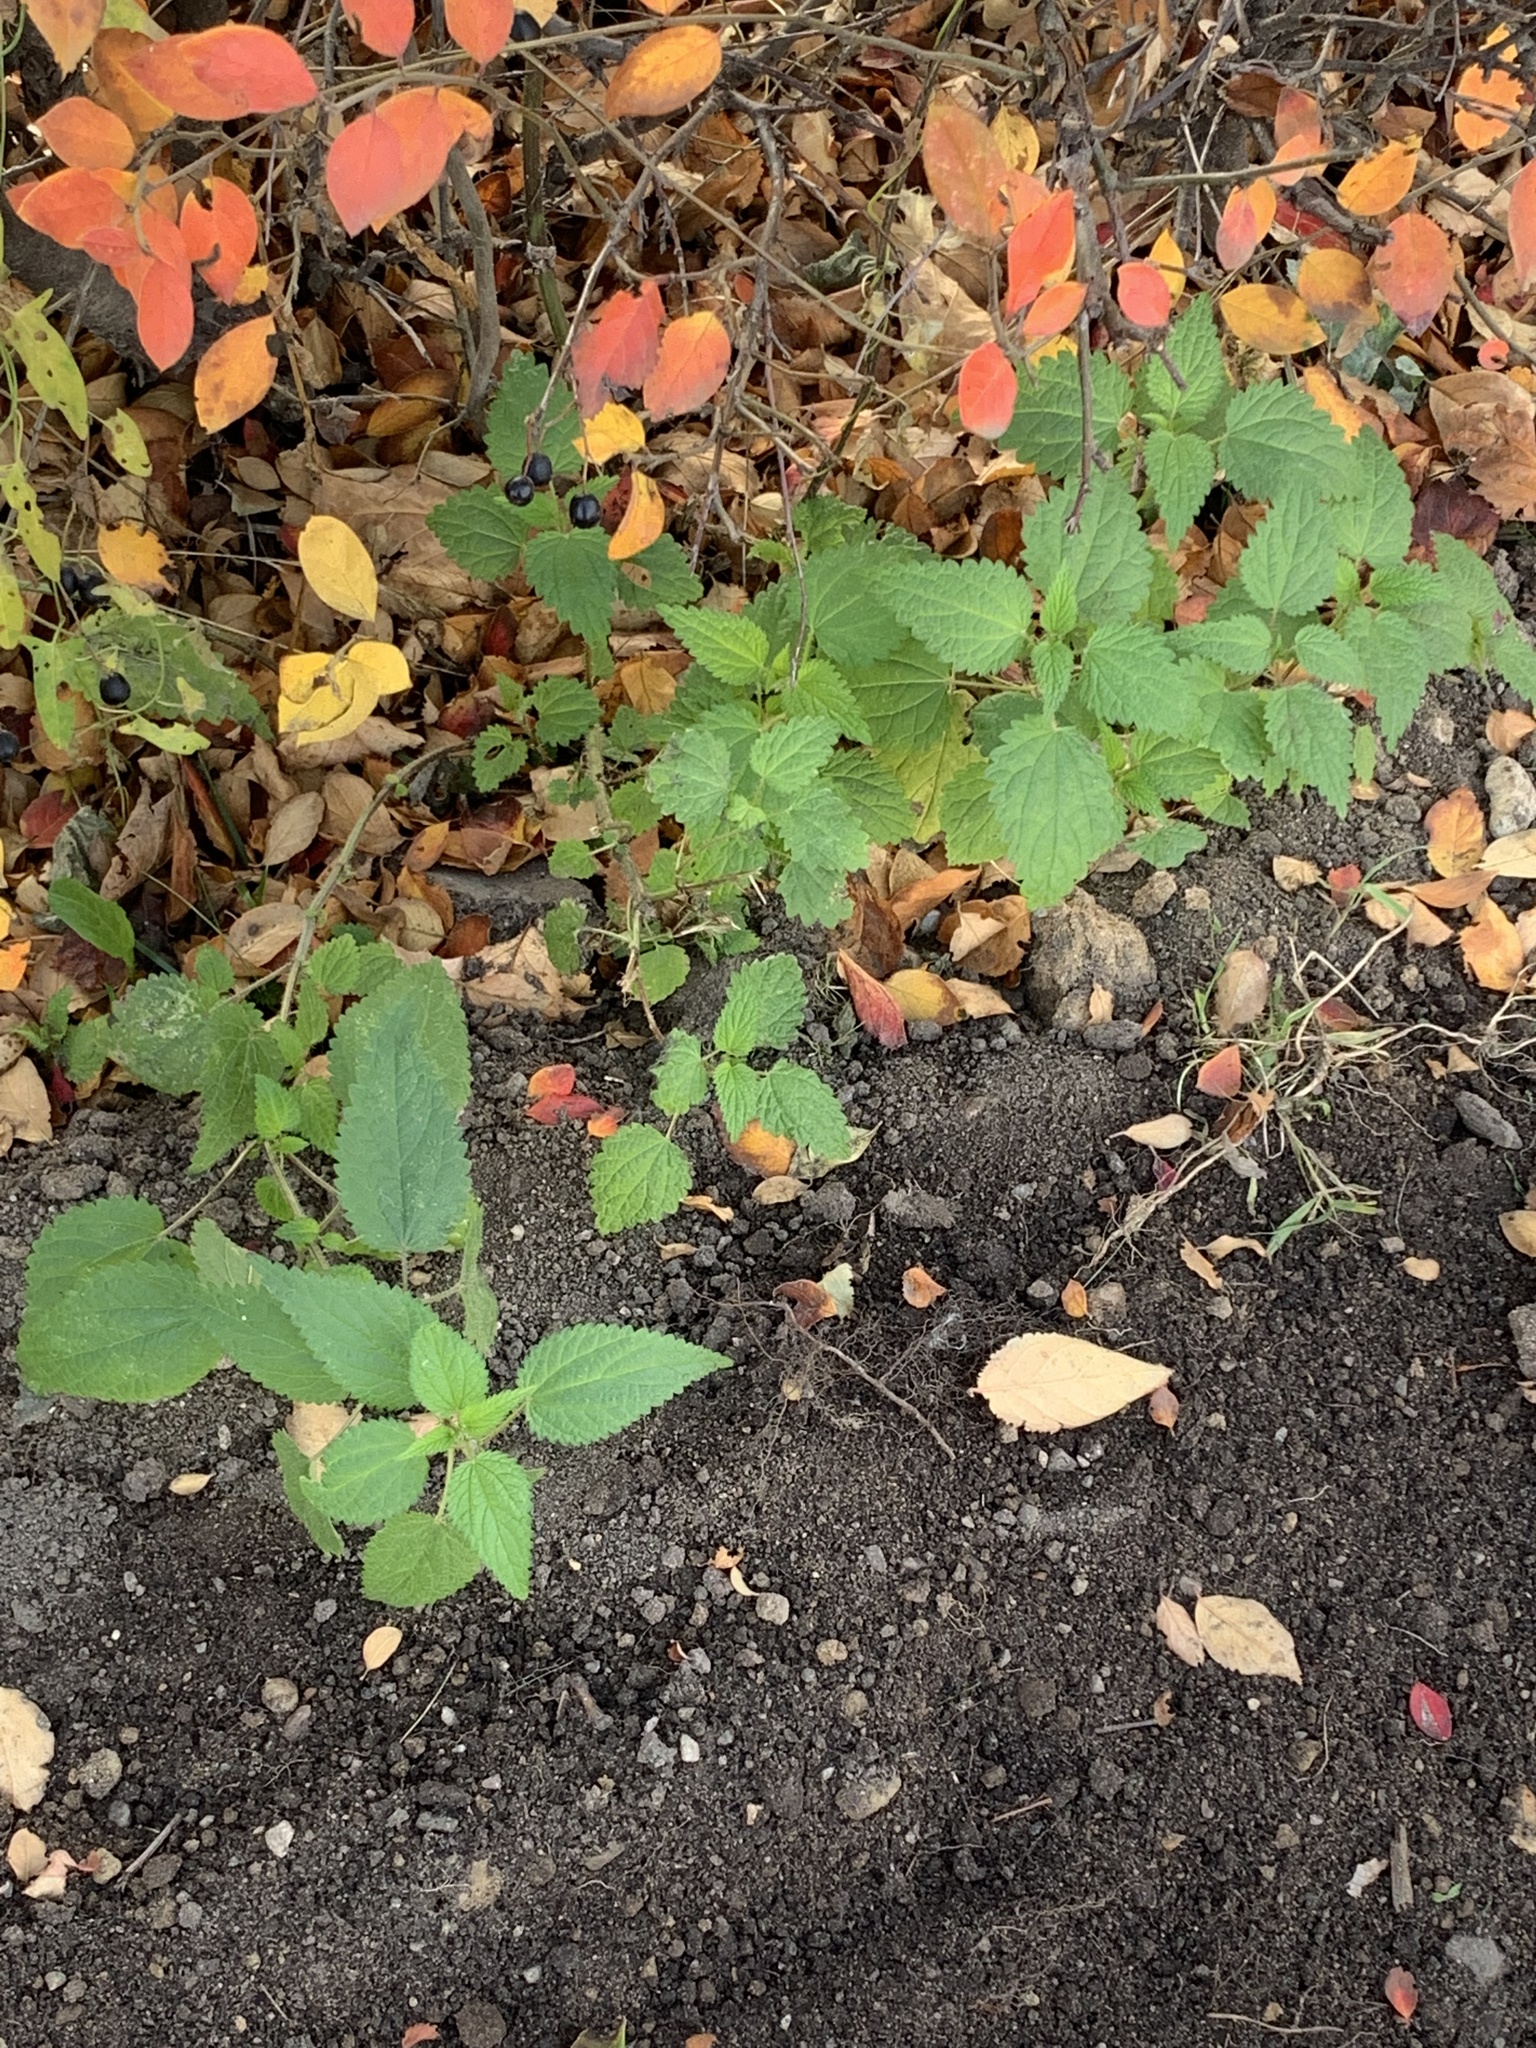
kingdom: Plantae
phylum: Tracheophyta
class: Magnoliopsida
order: Rosales
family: Urticaceae
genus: Urtica
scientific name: Urtica dioica
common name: Common nettle
